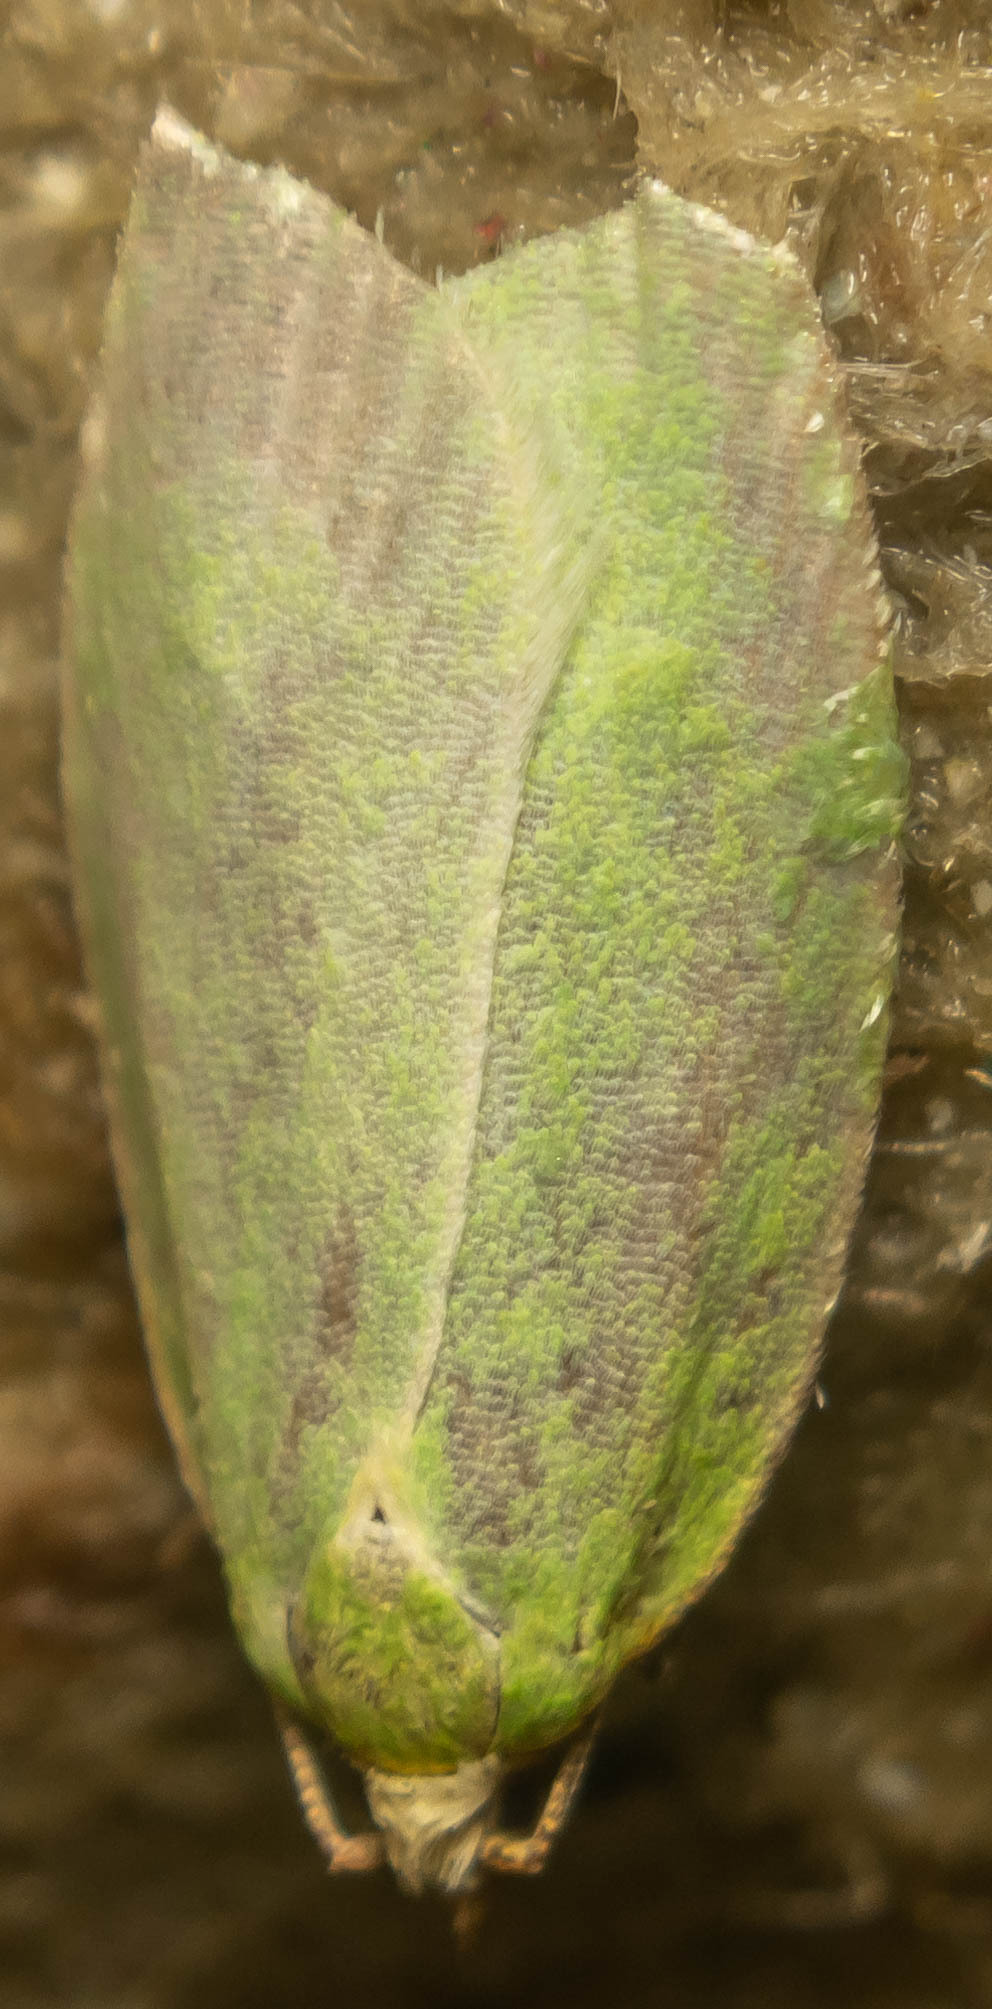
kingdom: Animalia
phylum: Arthropoda
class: Insecta
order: Lepidoptera
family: Tortricidae
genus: Tortrix
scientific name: Tortrix viridana
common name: Green oak tortrix
